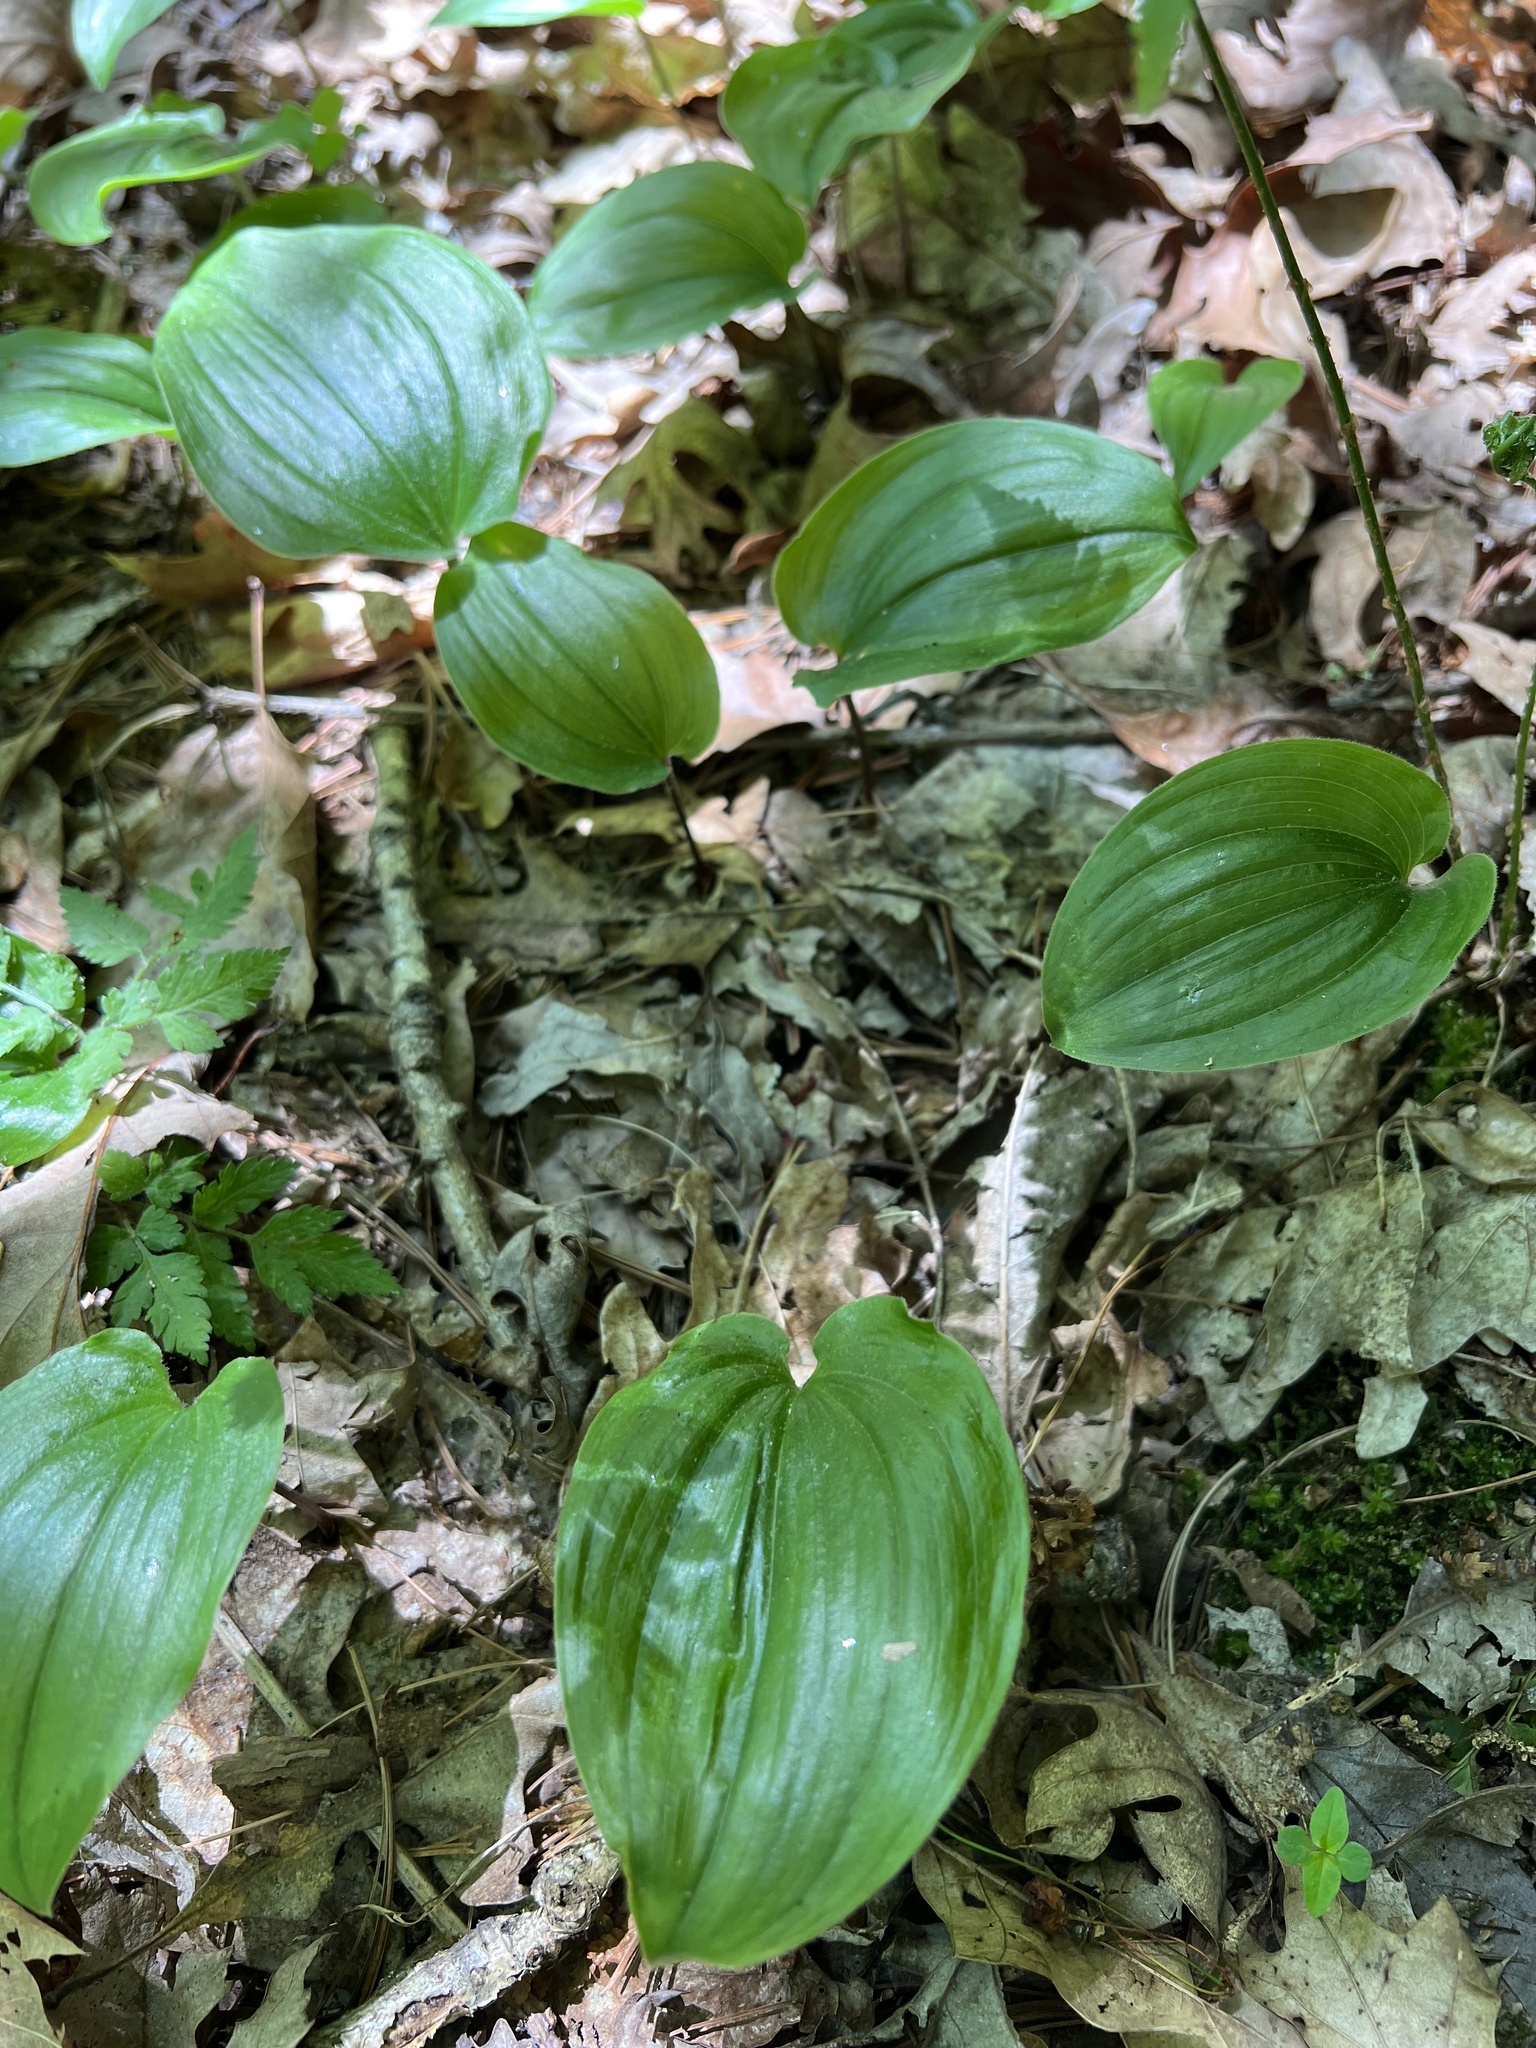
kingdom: Plantae
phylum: Tracheophyta
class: Liliopsida
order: Asparagales
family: Asparagaceae
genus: Maianthemum
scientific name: Maianthemum canadense
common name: False lily-of-the-valley
